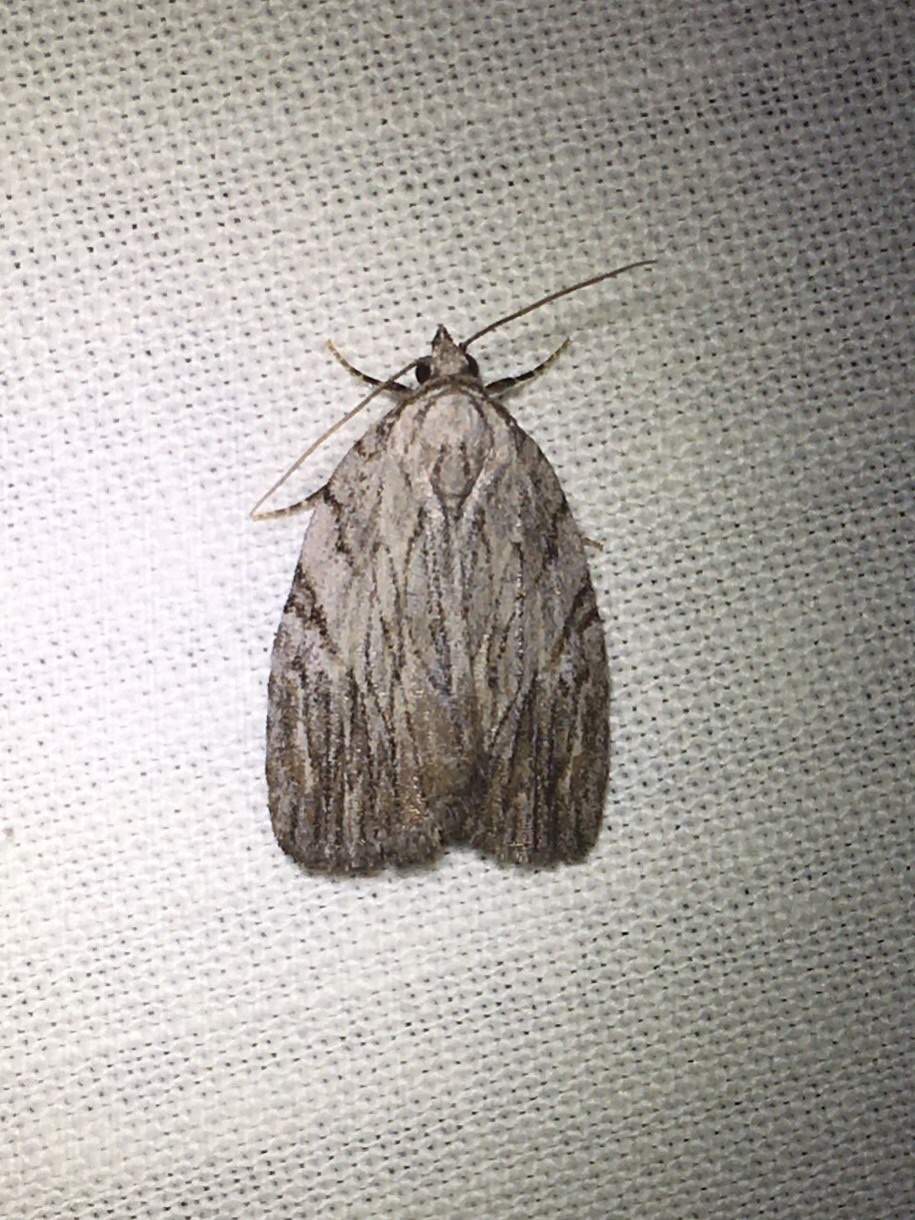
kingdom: Animalia
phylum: Arthropoda
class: Insecta
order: Lepidoptera
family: Noctuidae
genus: Balsa
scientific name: Balsa tristrigella
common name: Three-lined balsa moth
